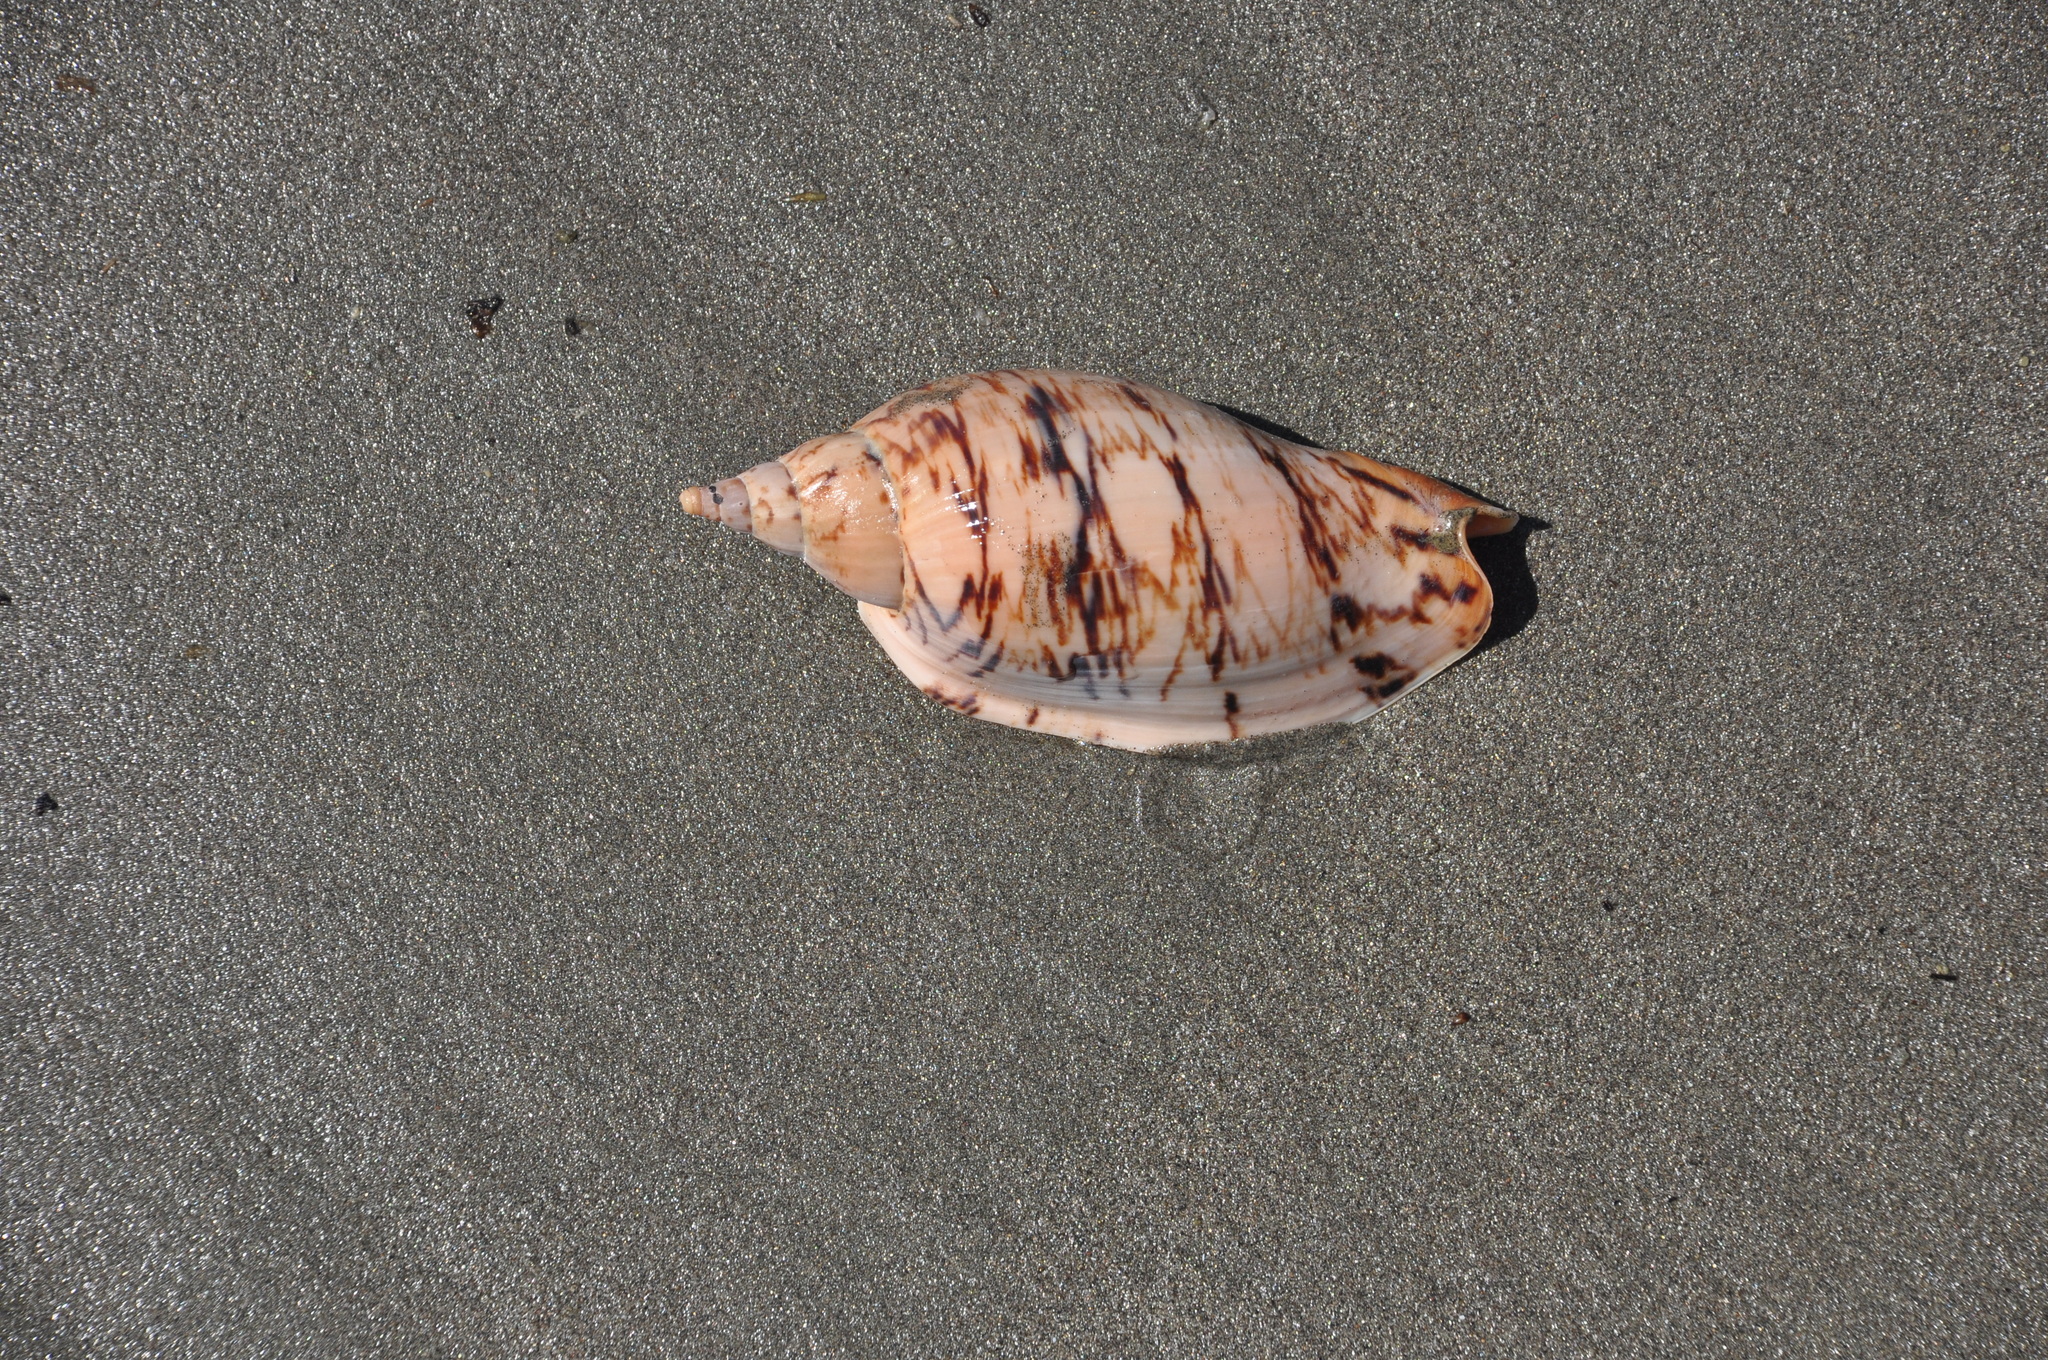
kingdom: Animalia
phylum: Mollusca
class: Gastropoda
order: Neogastropoda
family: Volutidae
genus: Alcithoe
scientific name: Alcithoe arabica
